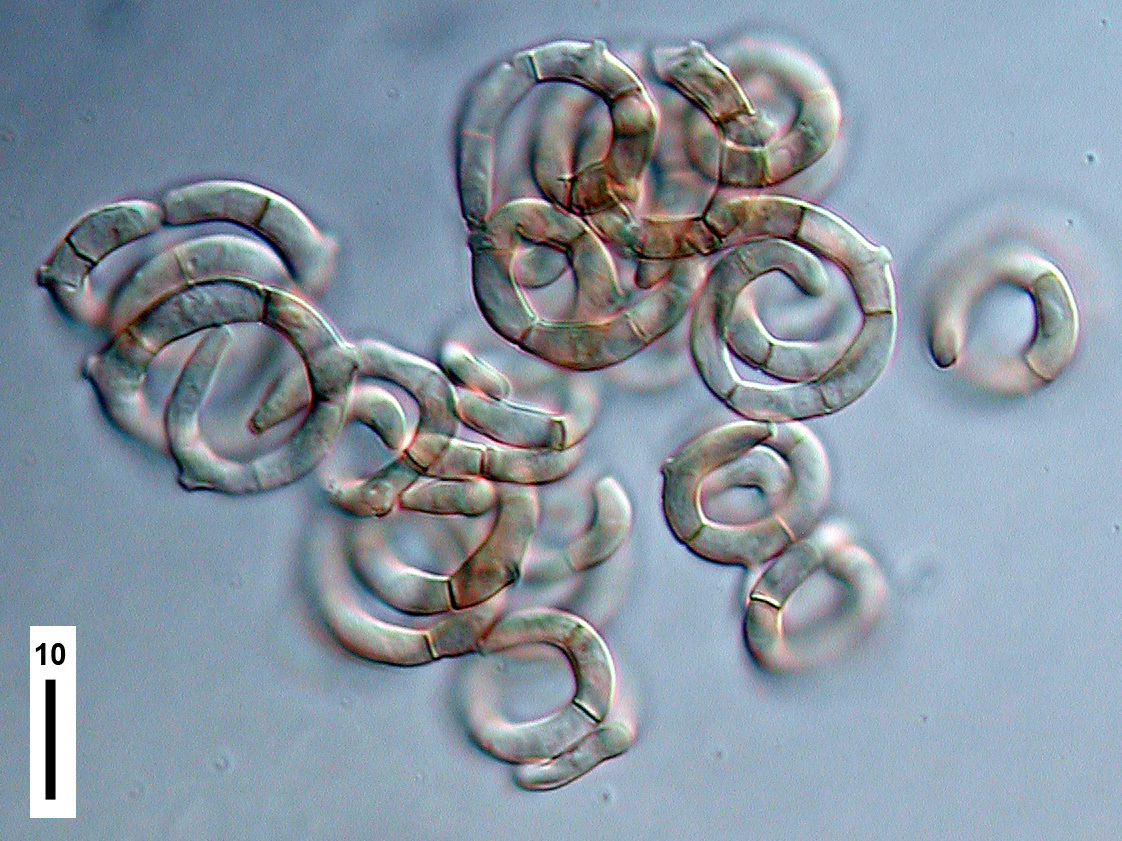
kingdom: Fungi
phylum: Ascomycota
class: Leotiomycetes
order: Helotiales
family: Helotiaceae
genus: Helicodendron
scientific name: Helicodendron websteri
